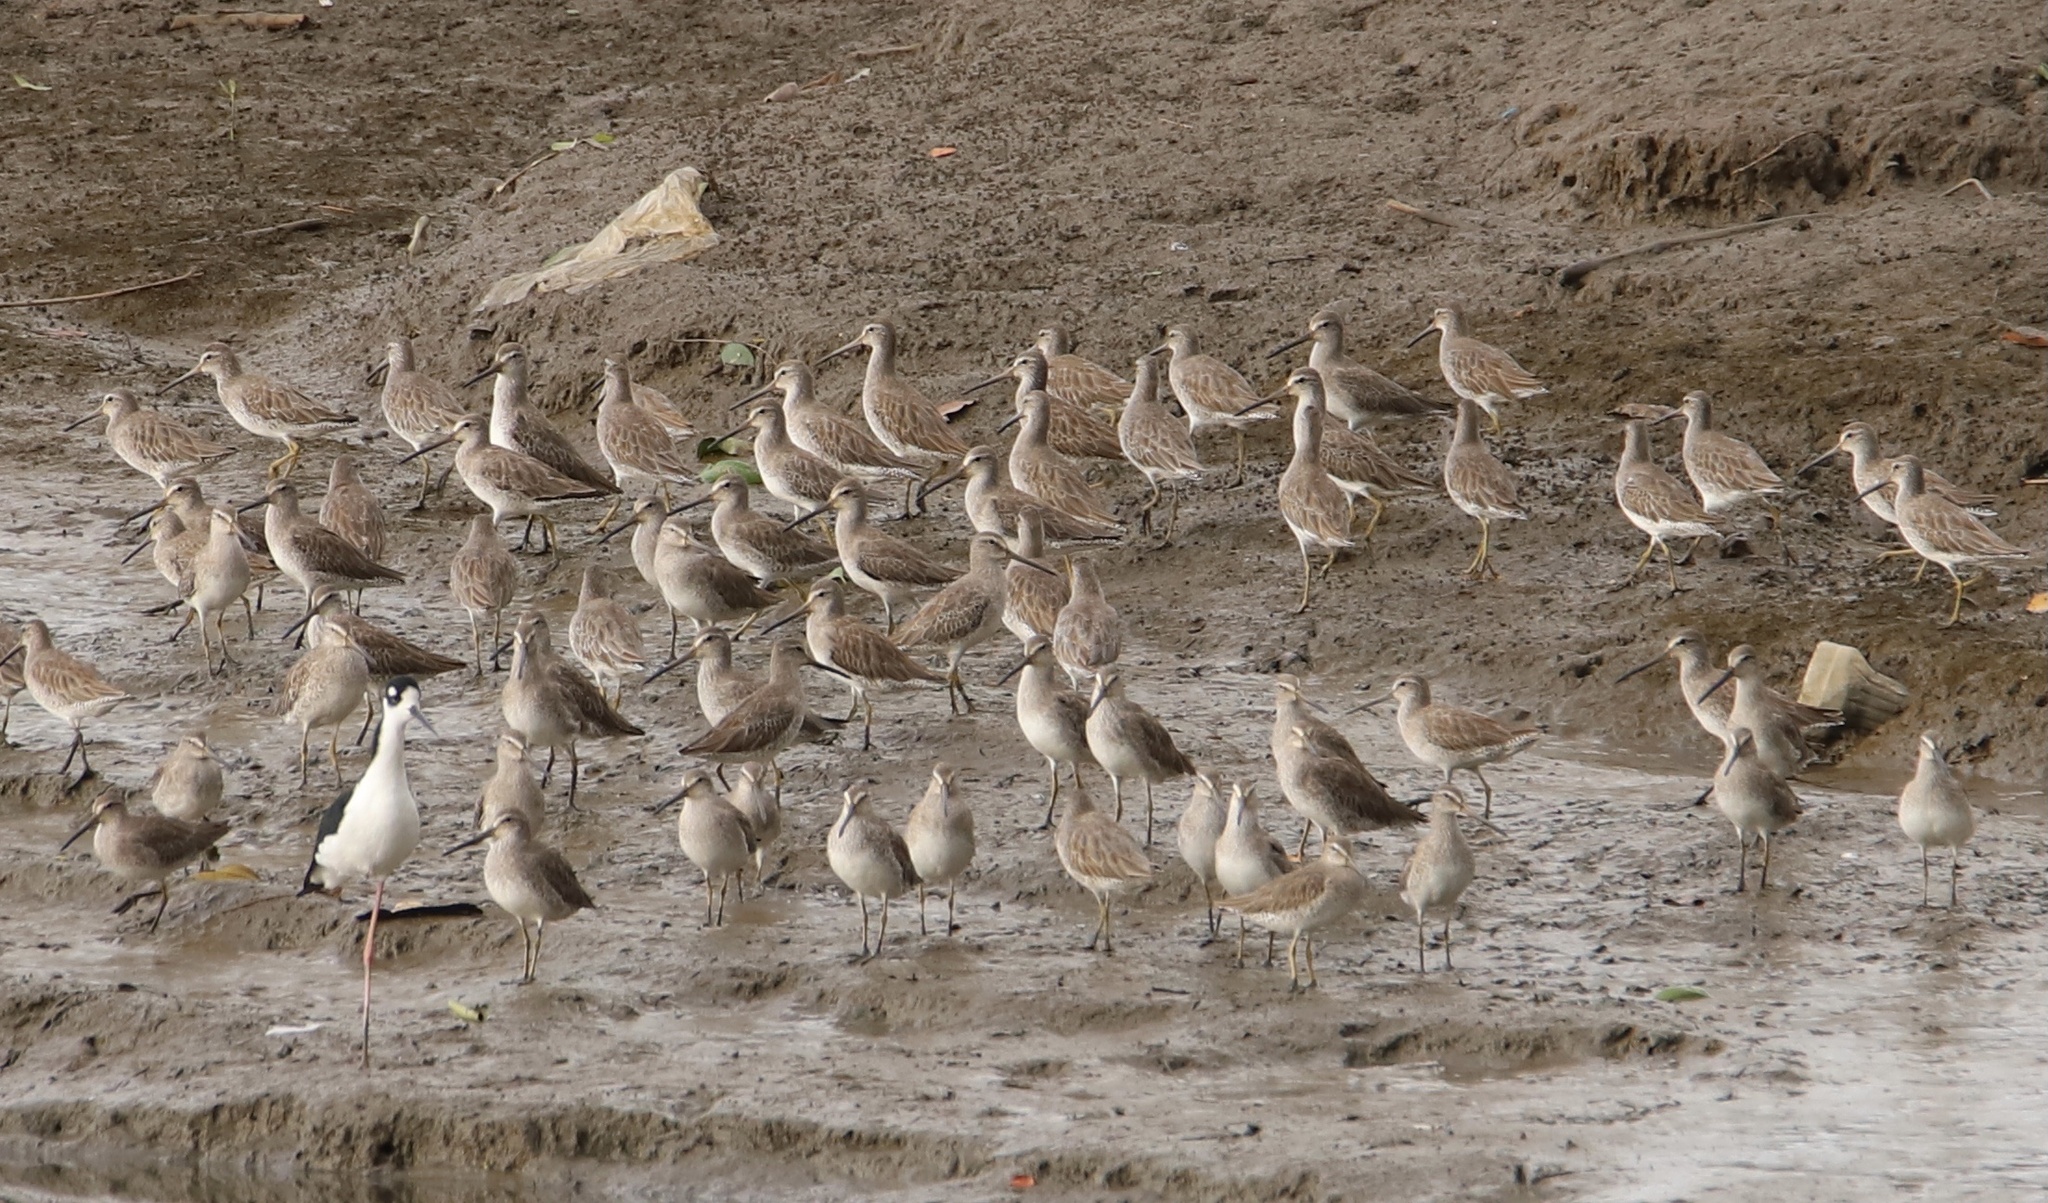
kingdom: Animalia
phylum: Chordata
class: Aves
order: Charadriiformes
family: Scolopacidae
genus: Limnodromus
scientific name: Limnodromus griseus
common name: Short-billed dowitcher
